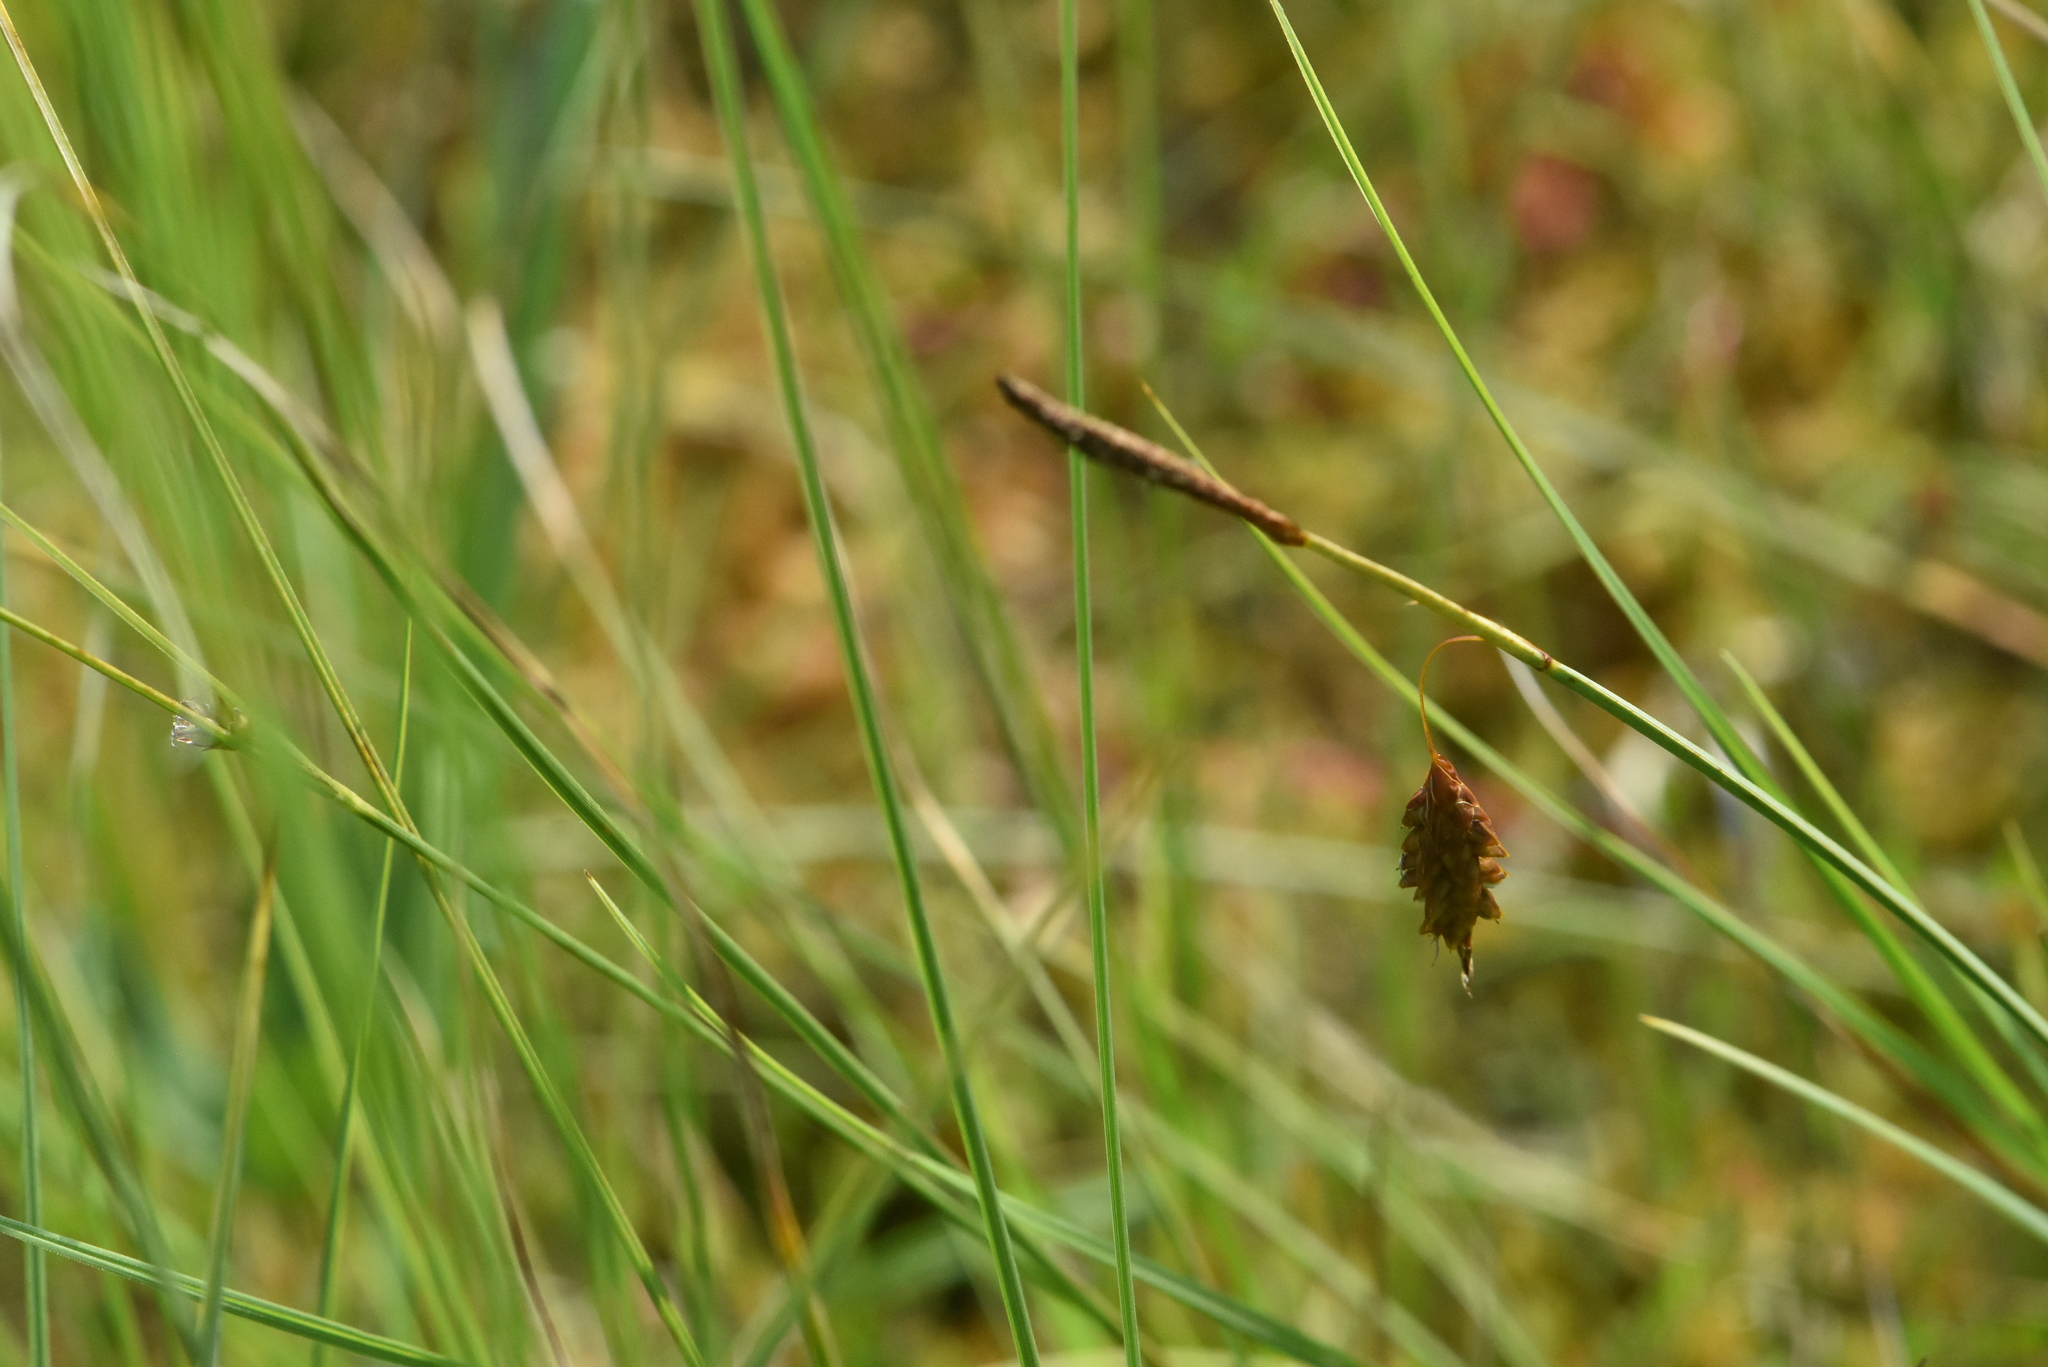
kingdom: Plantae
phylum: Tracheophyta
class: Liliopsida
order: Poales
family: Cyperaceae
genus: Carex
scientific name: Carex limosa
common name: Bog sedge
